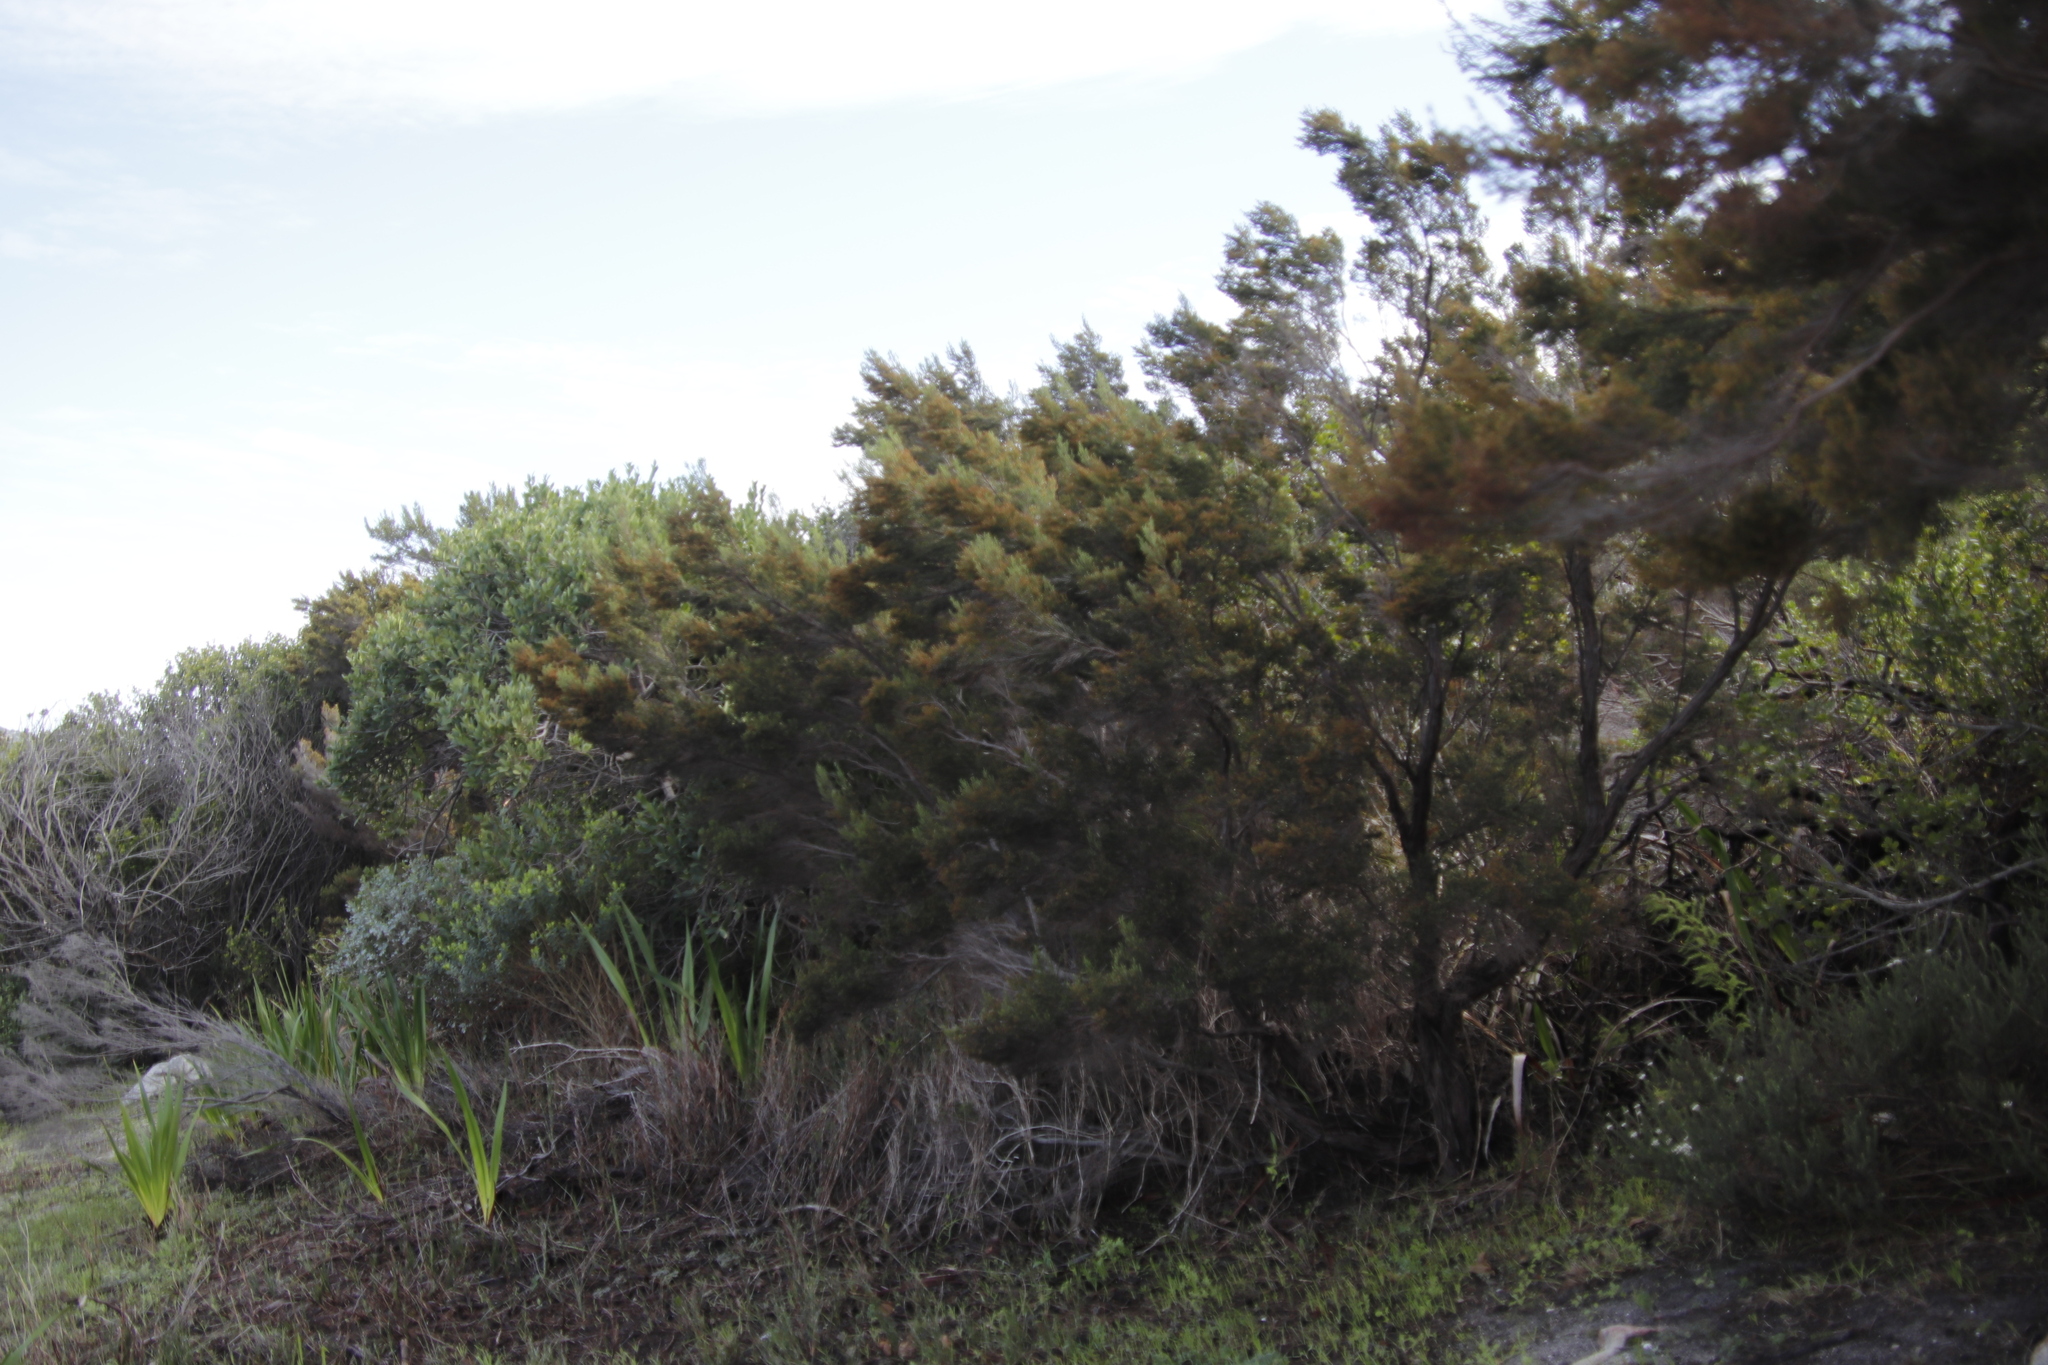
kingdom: Plantae
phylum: Tracheophyta
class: Magnoliopsida
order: Ericales
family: Ericaceae
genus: Erica
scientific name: Erica tristis
